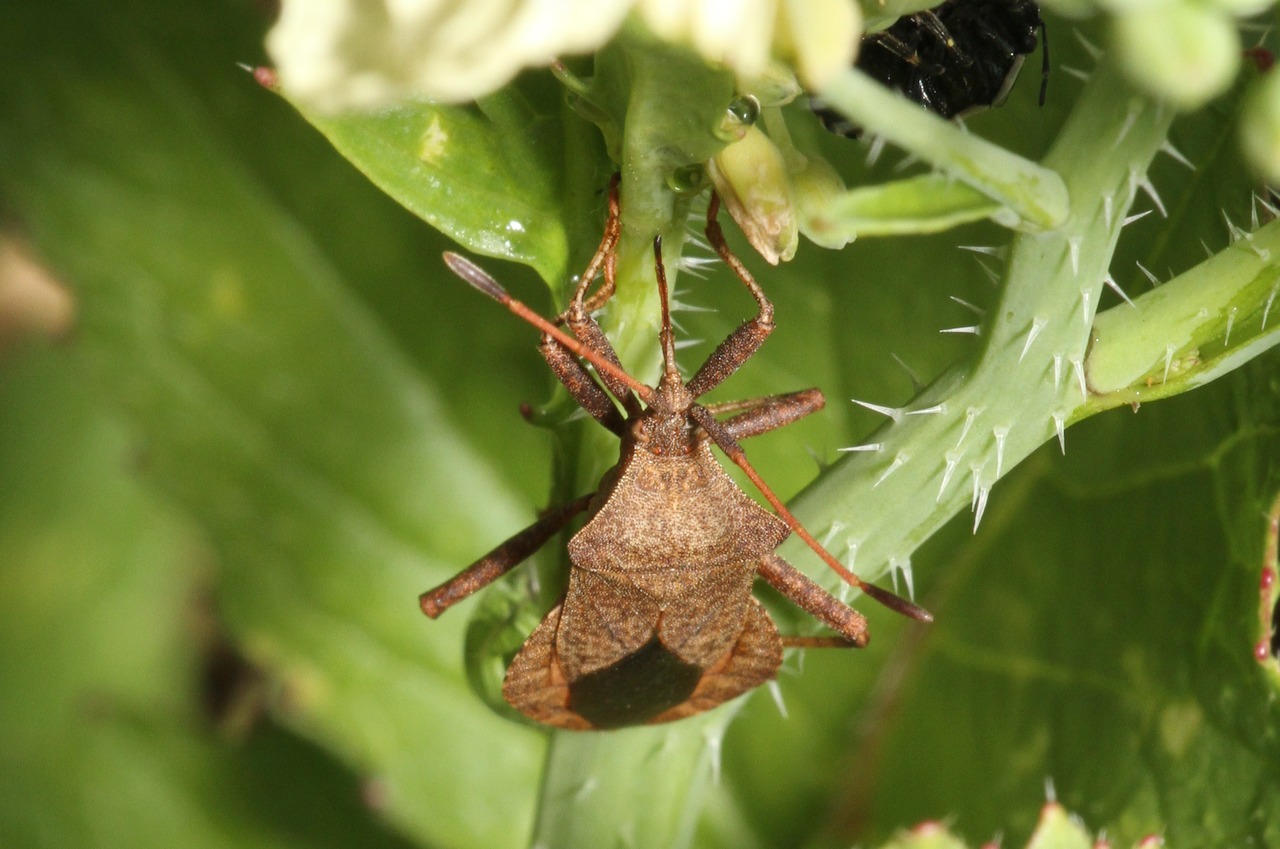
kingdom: Animalia
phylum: Arthropoda
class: Insecta
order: Hemiptera
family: Coreidae
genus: Coreus
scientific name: Coreus marginatus
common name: Dock bug
